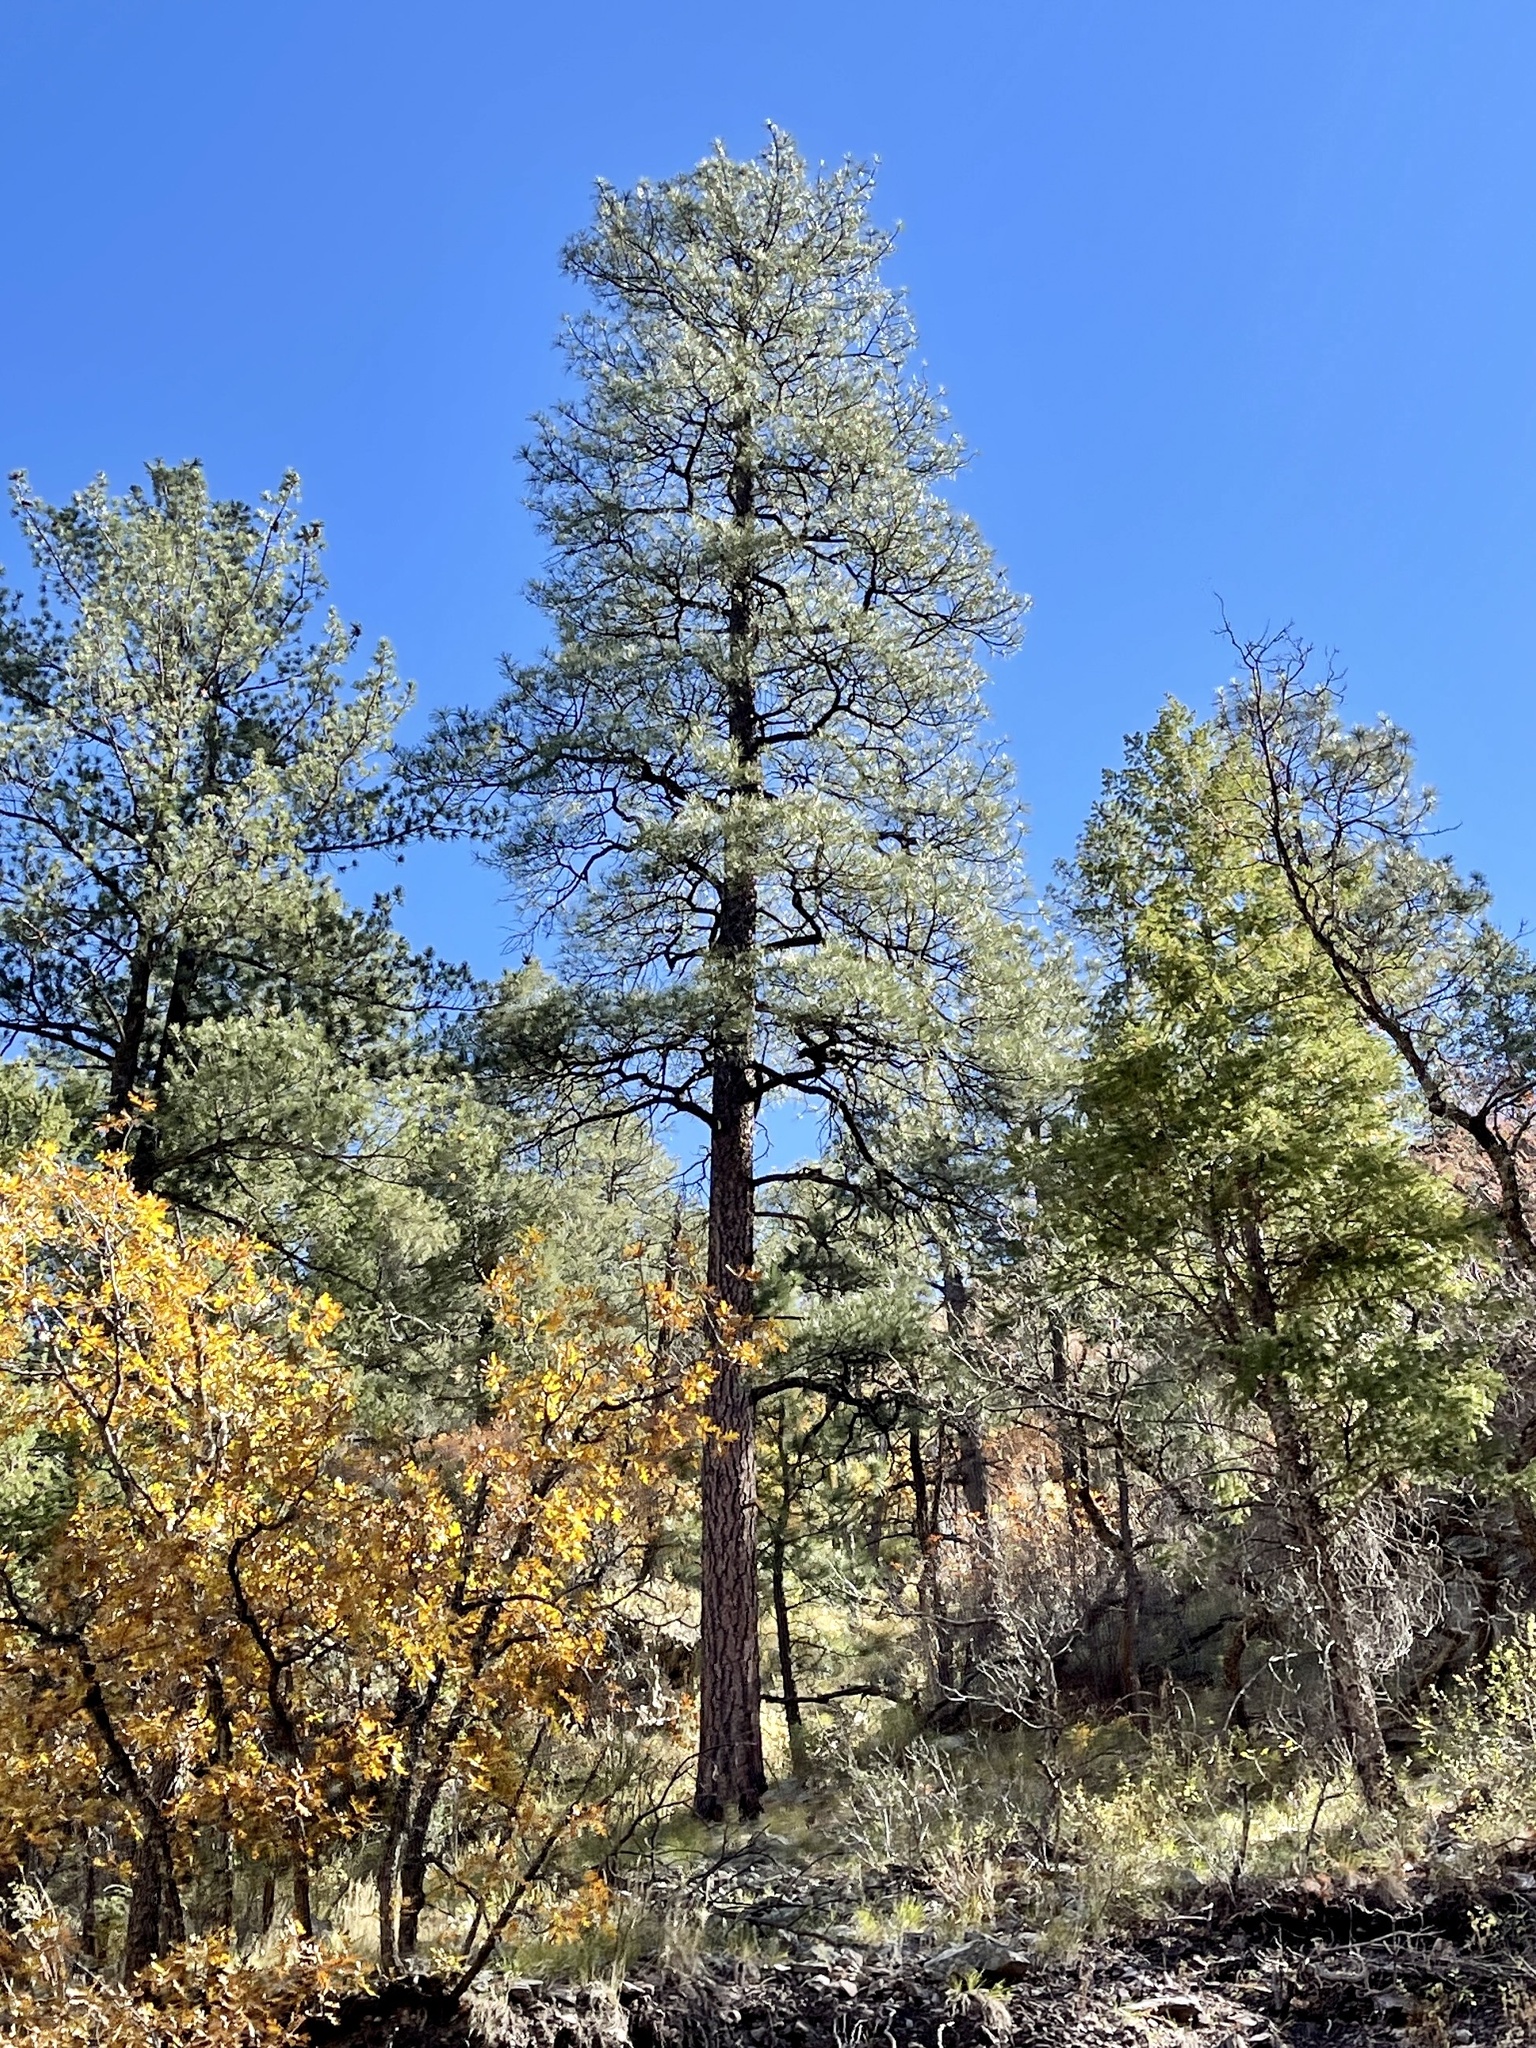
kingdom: Plantae
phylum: Tracheophyta
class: Pinopsida
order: Pinales
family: Pinaceae
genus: Pinus
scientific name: Pinus ponderosa
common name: Western yellow-pine
